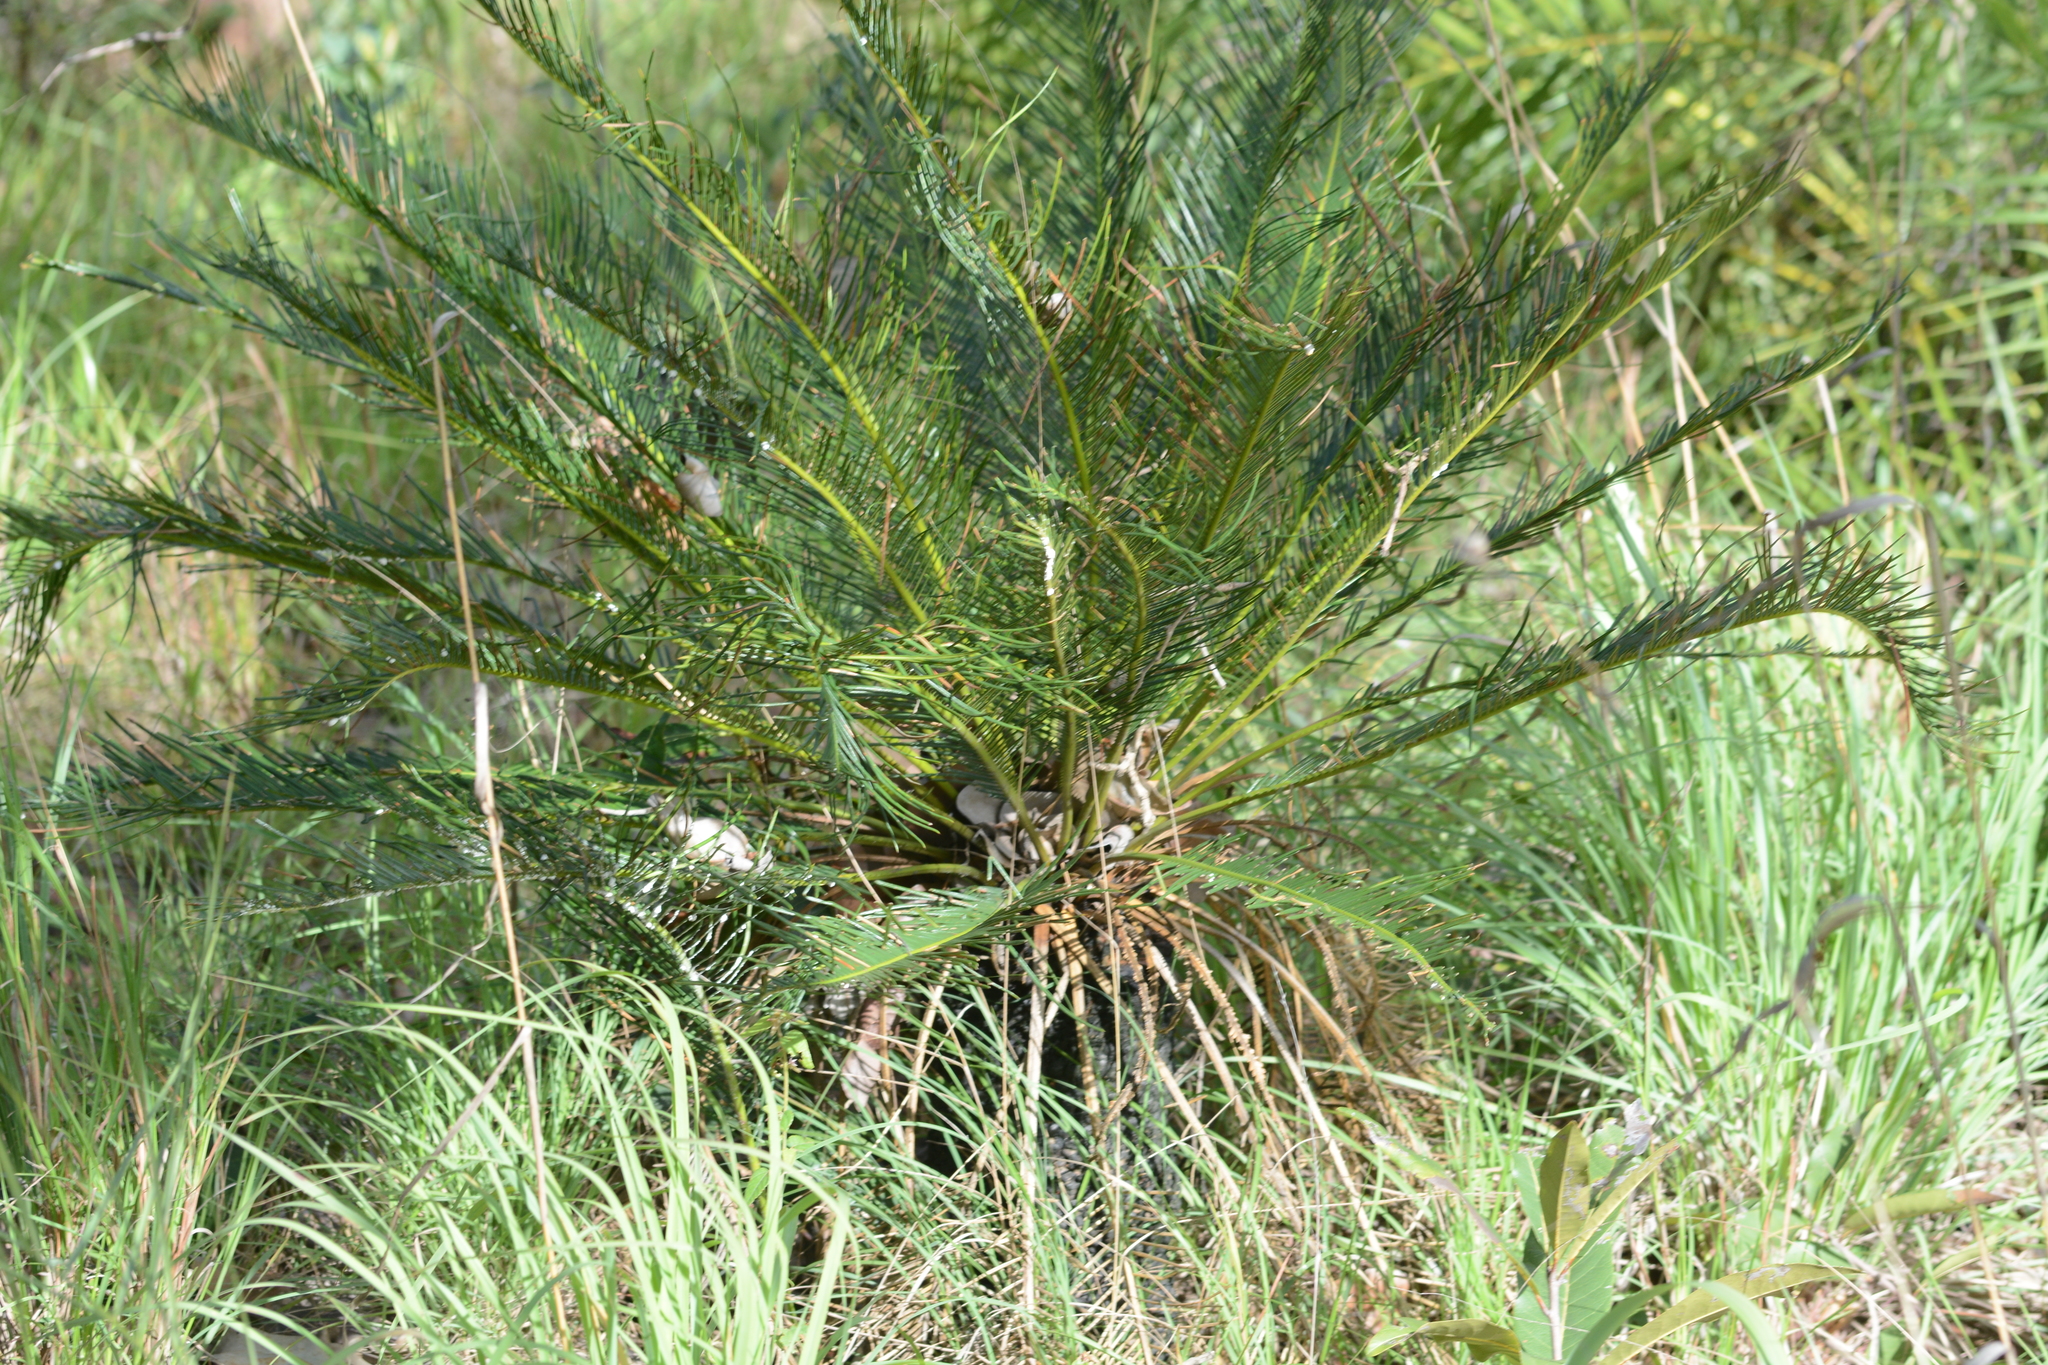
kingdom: Plantae
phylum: Tracheophyta
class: Cycadopsida
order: Cycadales
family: Cycadaceae
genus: Cycas
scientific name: Cycas beddomei
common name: Beddome’s cycas
